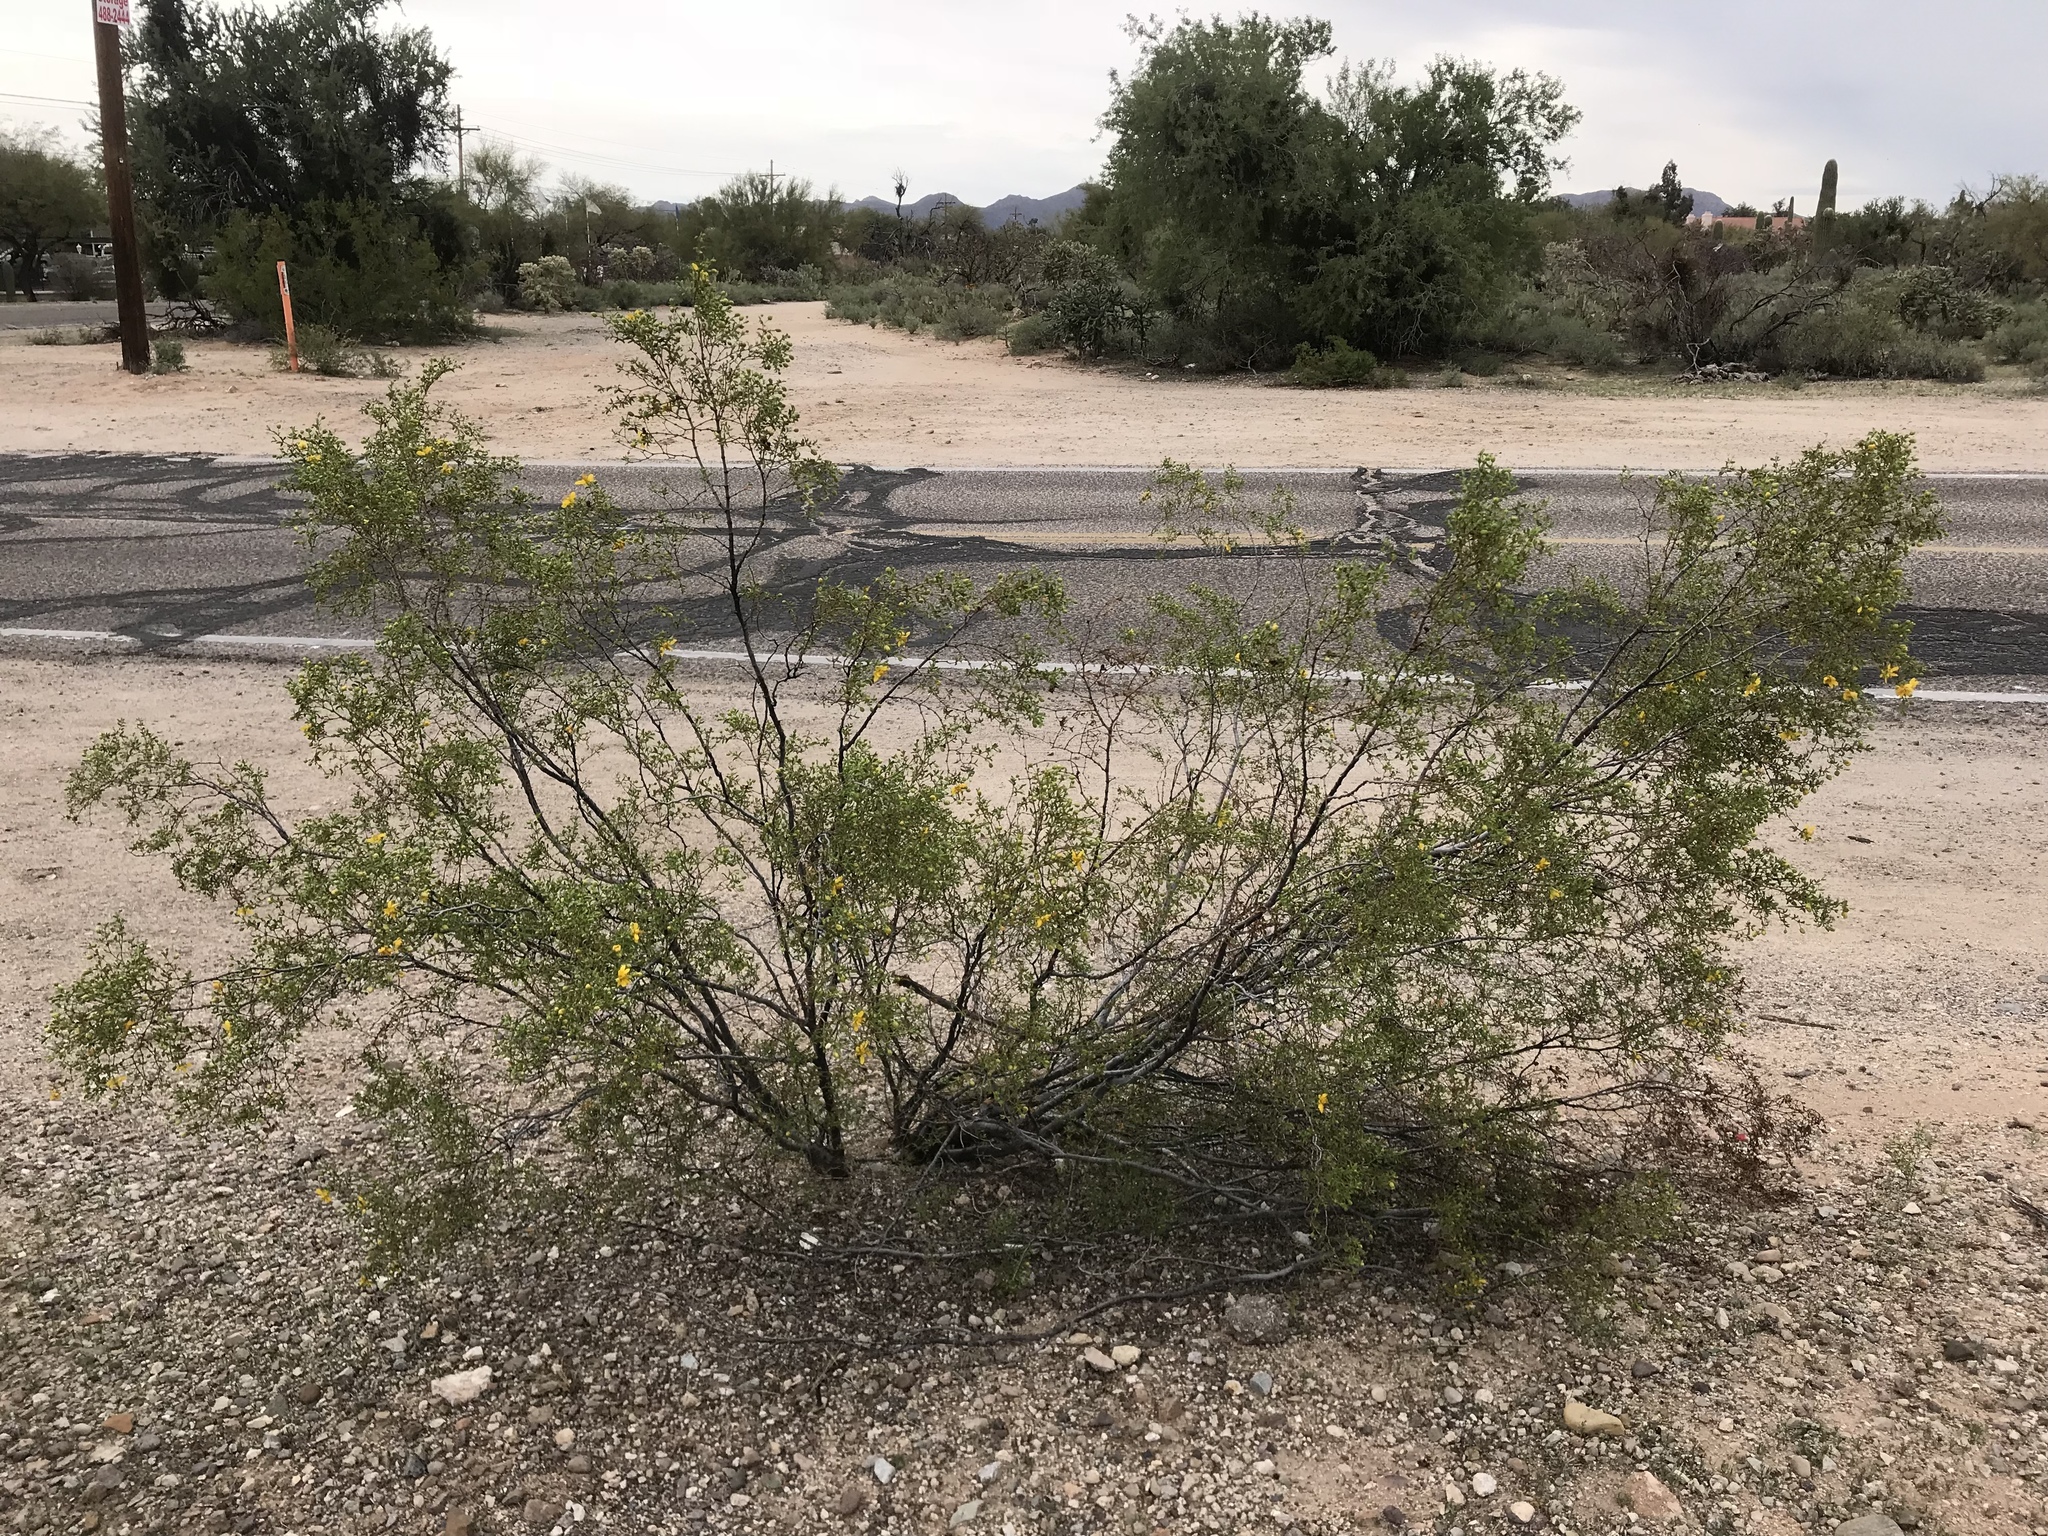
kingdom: Plantae
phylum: Tracheophyta
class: Magnoliopsida
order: Zygophyllales
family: Zygophyllaceae
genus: Larrea
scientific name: Larrea tridentata
